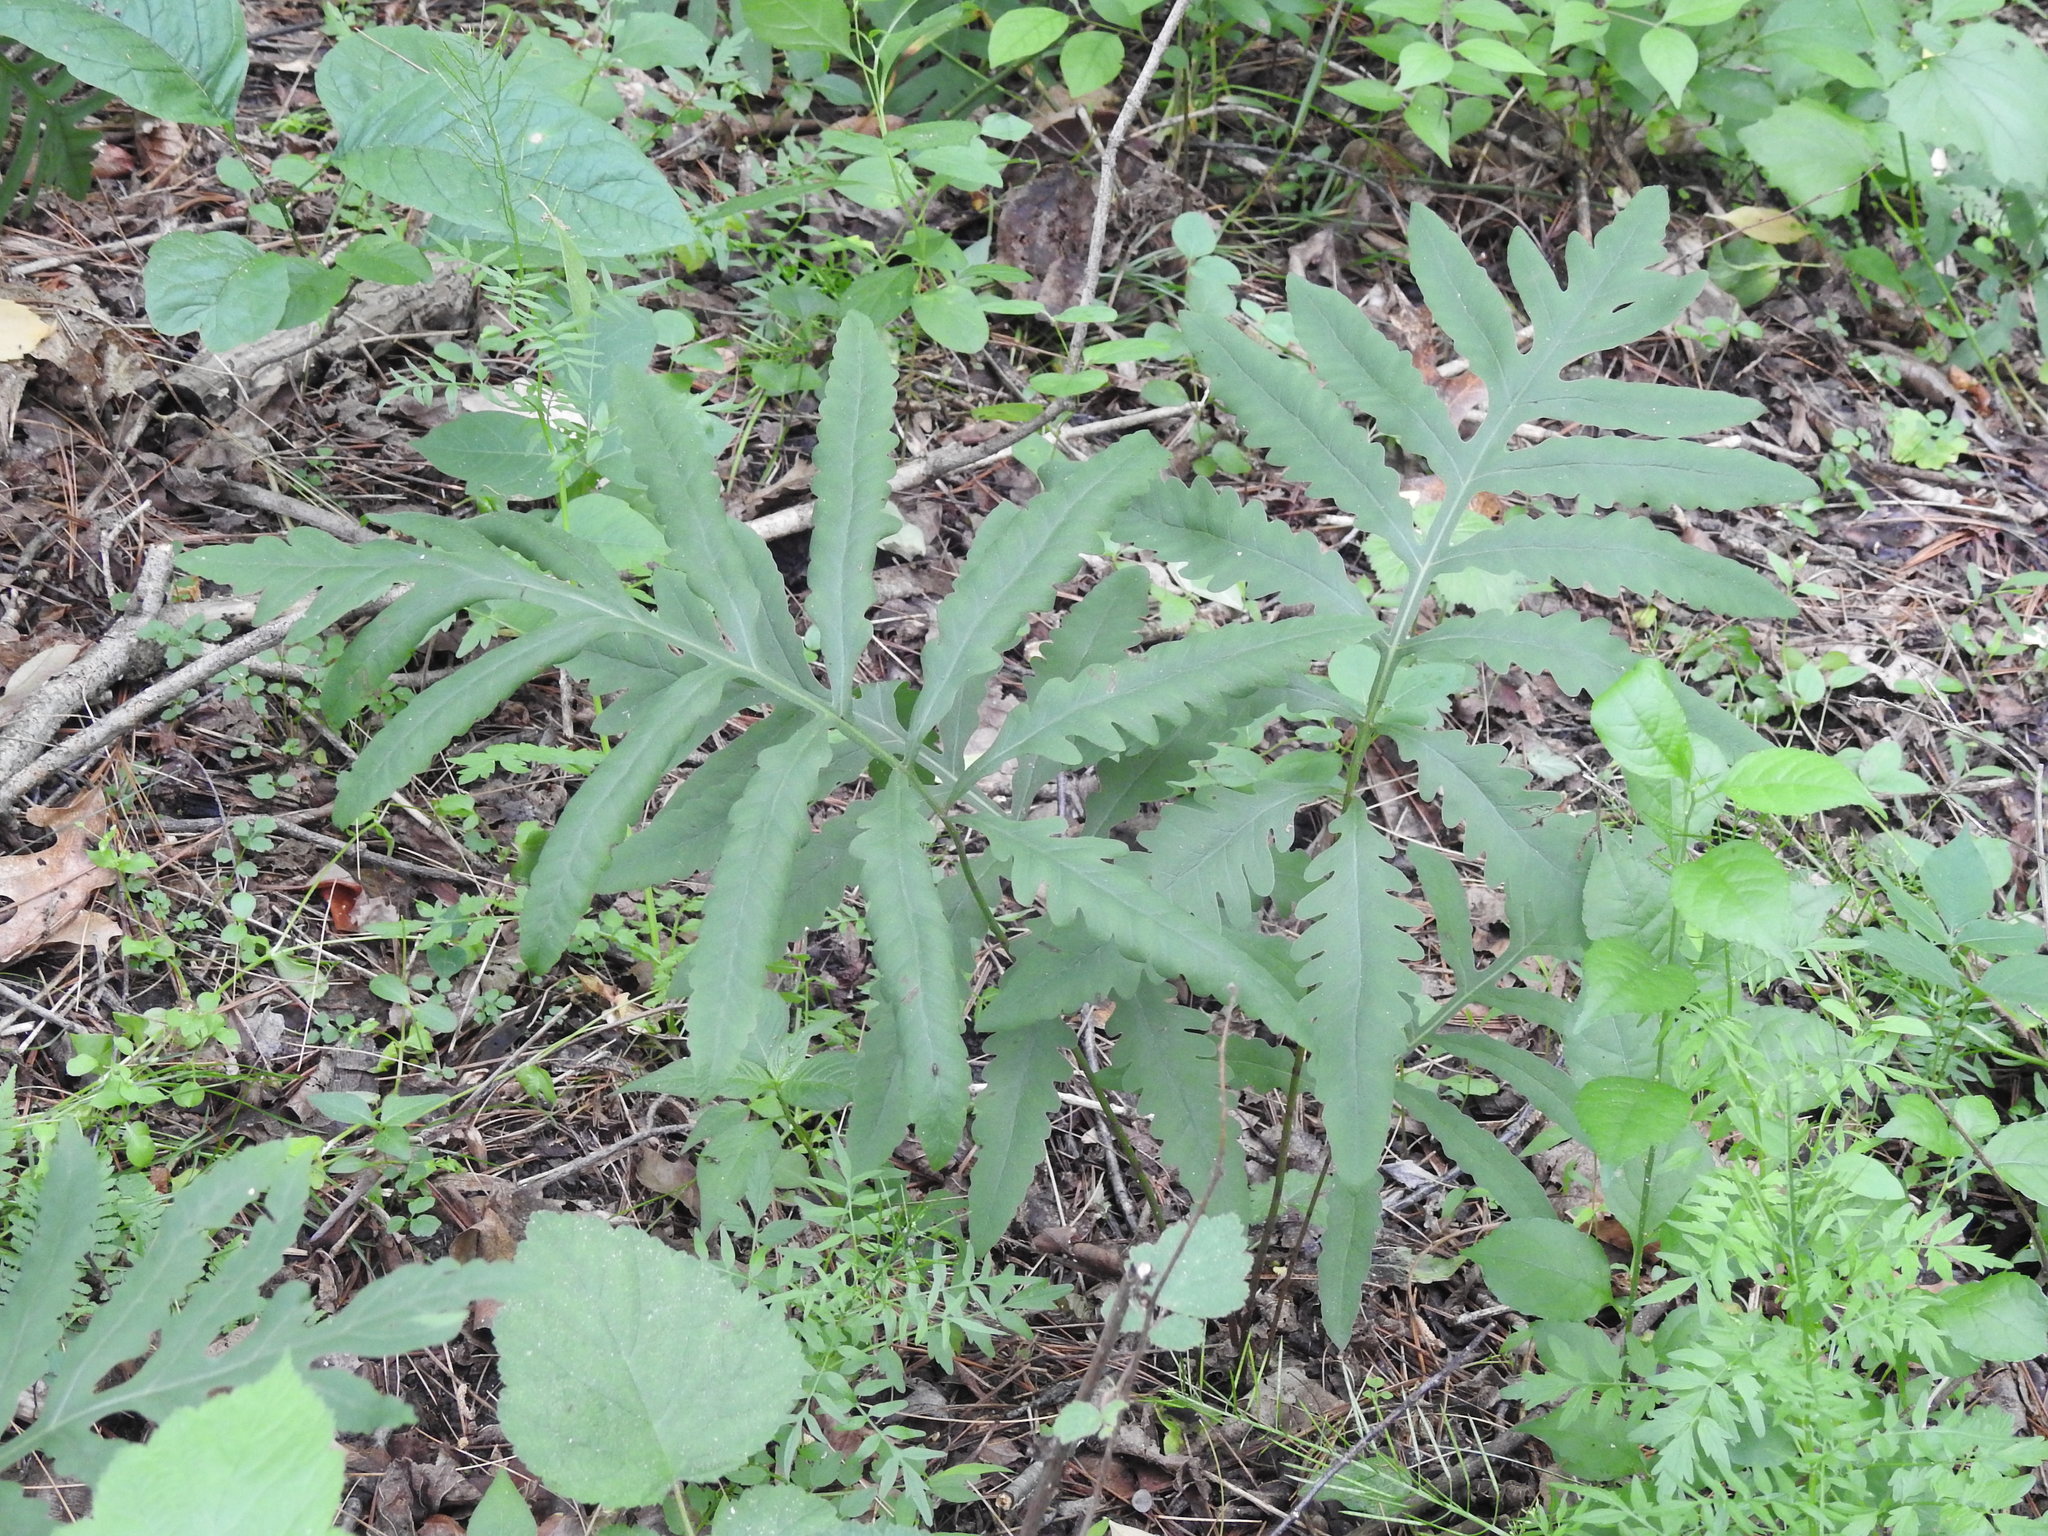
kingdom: Plantae
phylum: Tracheophyta
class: Polypodiopsida
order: Polypodiales
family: Onocleaceae
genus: Onoclea
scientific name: Onoclea sensibilis
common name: Sensitive fern
